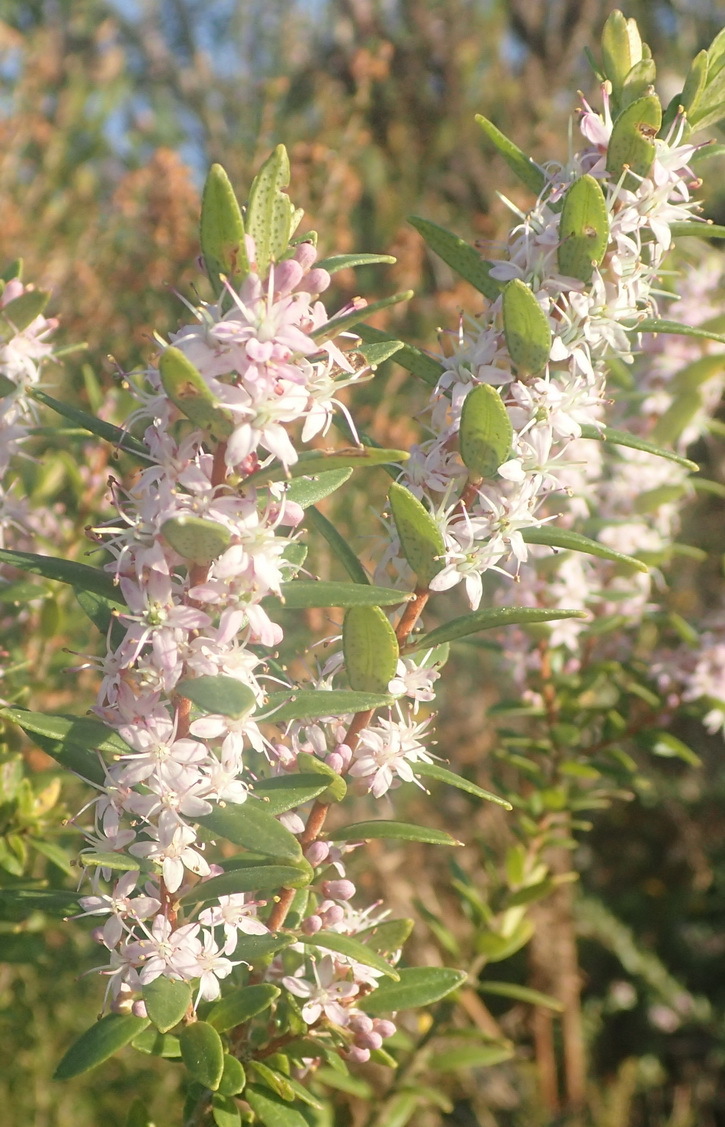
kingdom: Plantae
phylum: Tracheophyta
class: Magnoliopsida
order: Sapindales
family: Rutaceae
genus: Agathosma
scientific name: Agathosma ovata
